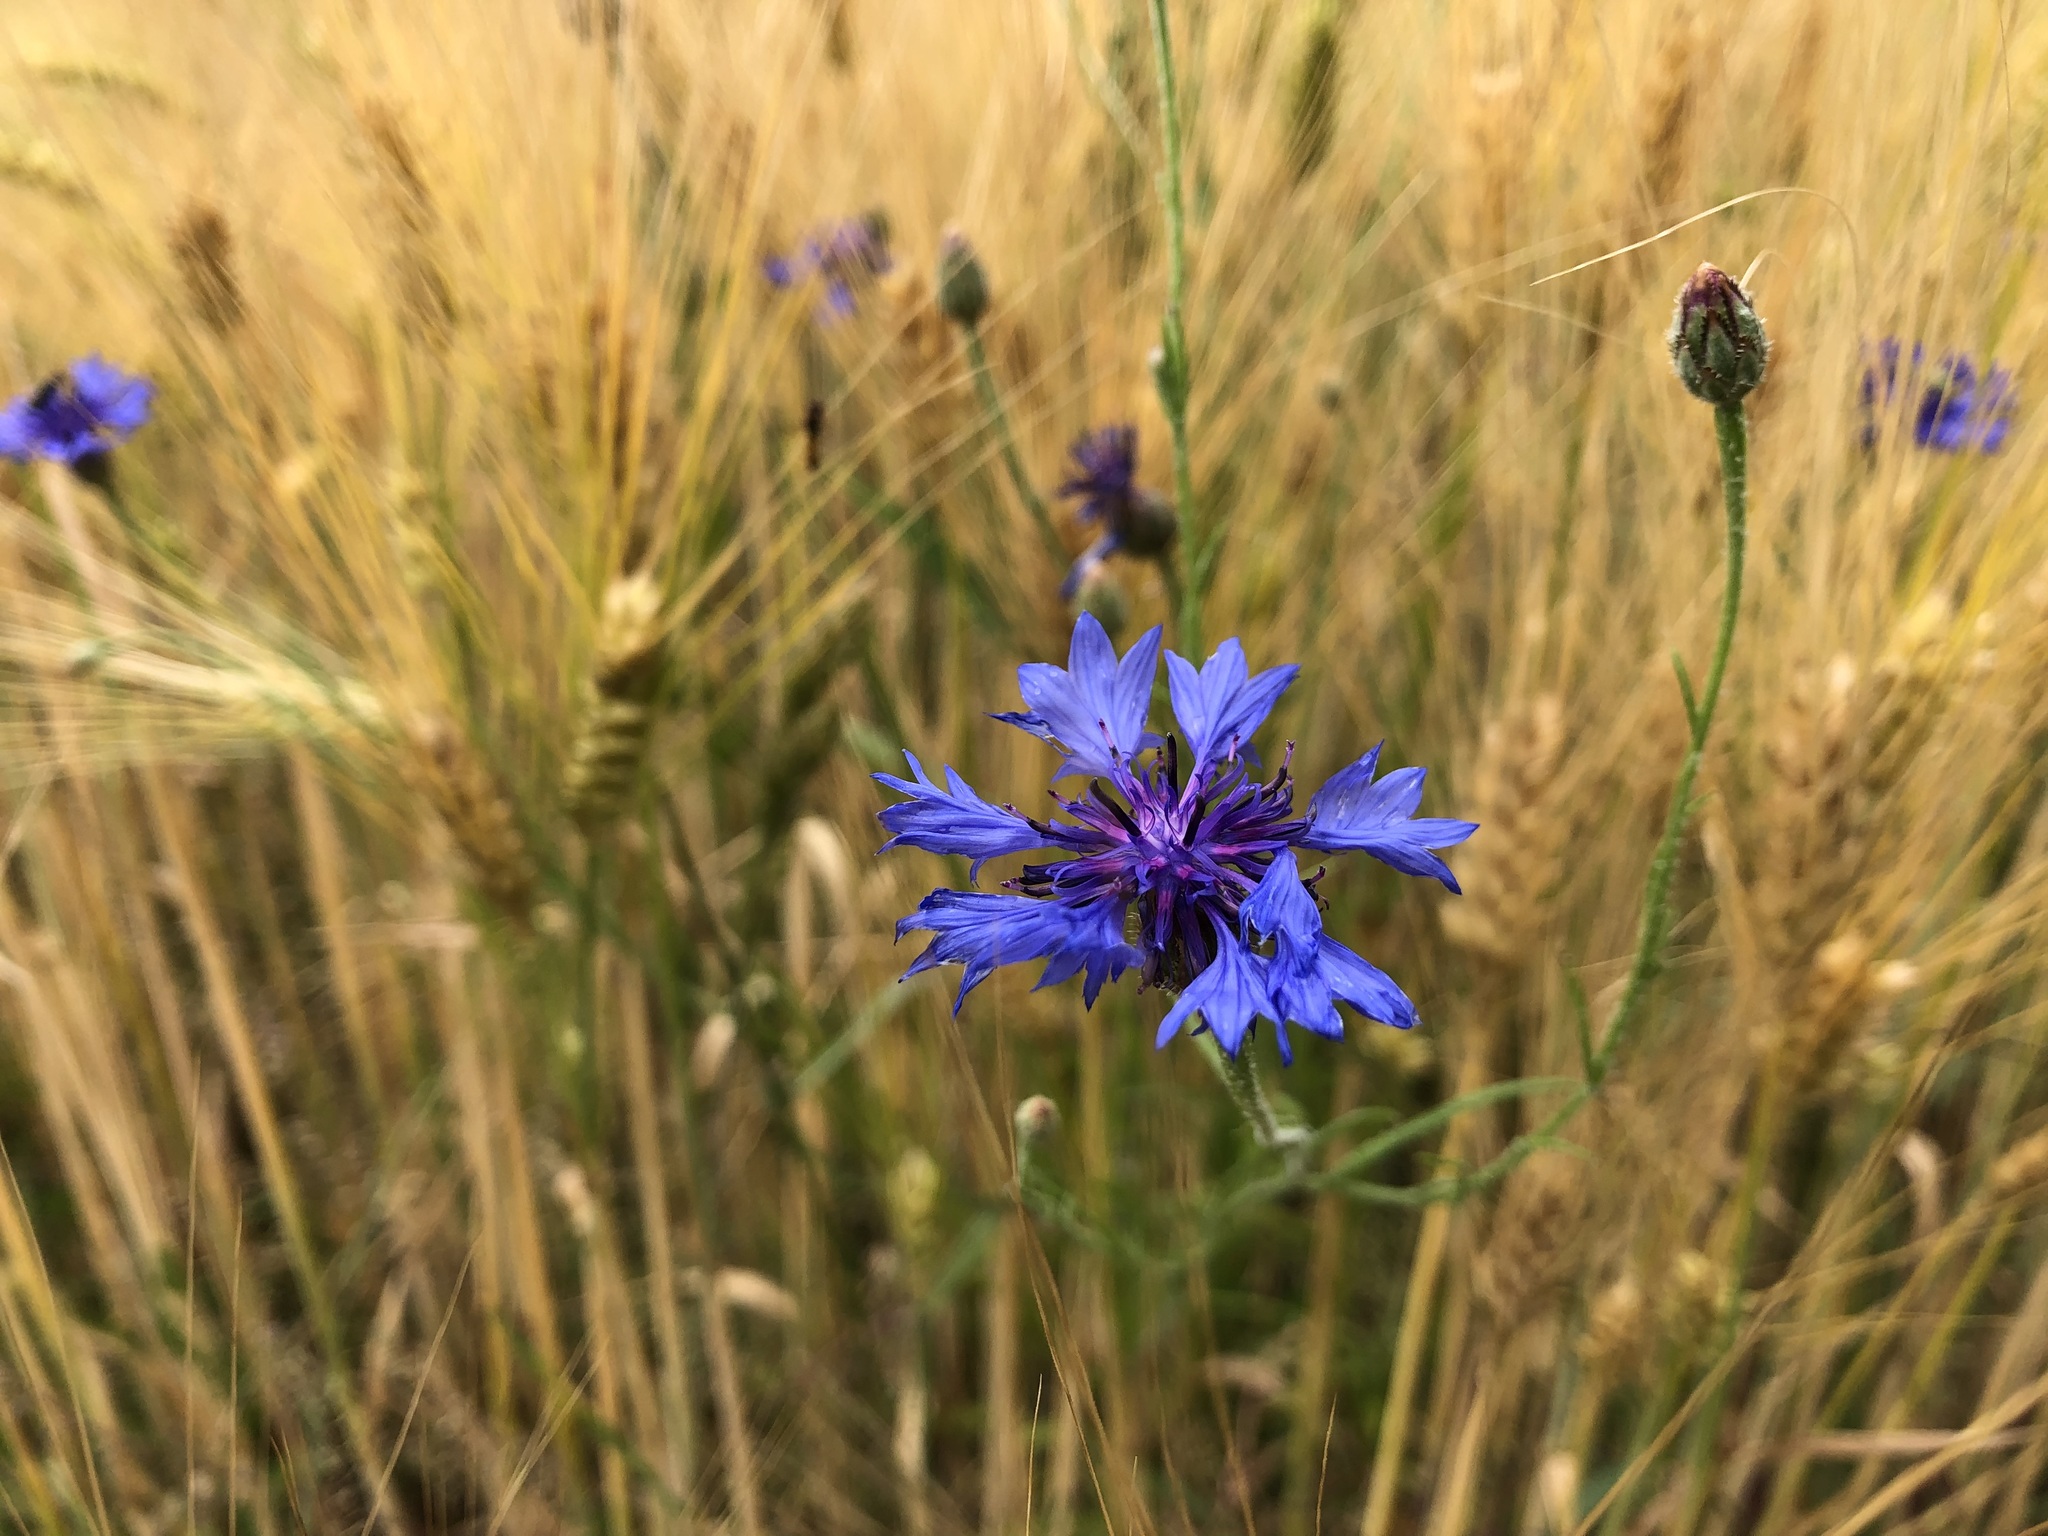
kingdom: Plantae
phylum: Tracheophyta
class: Magnoliopsida
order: Asterales
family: Asteraceae
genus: Centaurea
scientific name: Centaurea cyanus
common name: Cornflower
